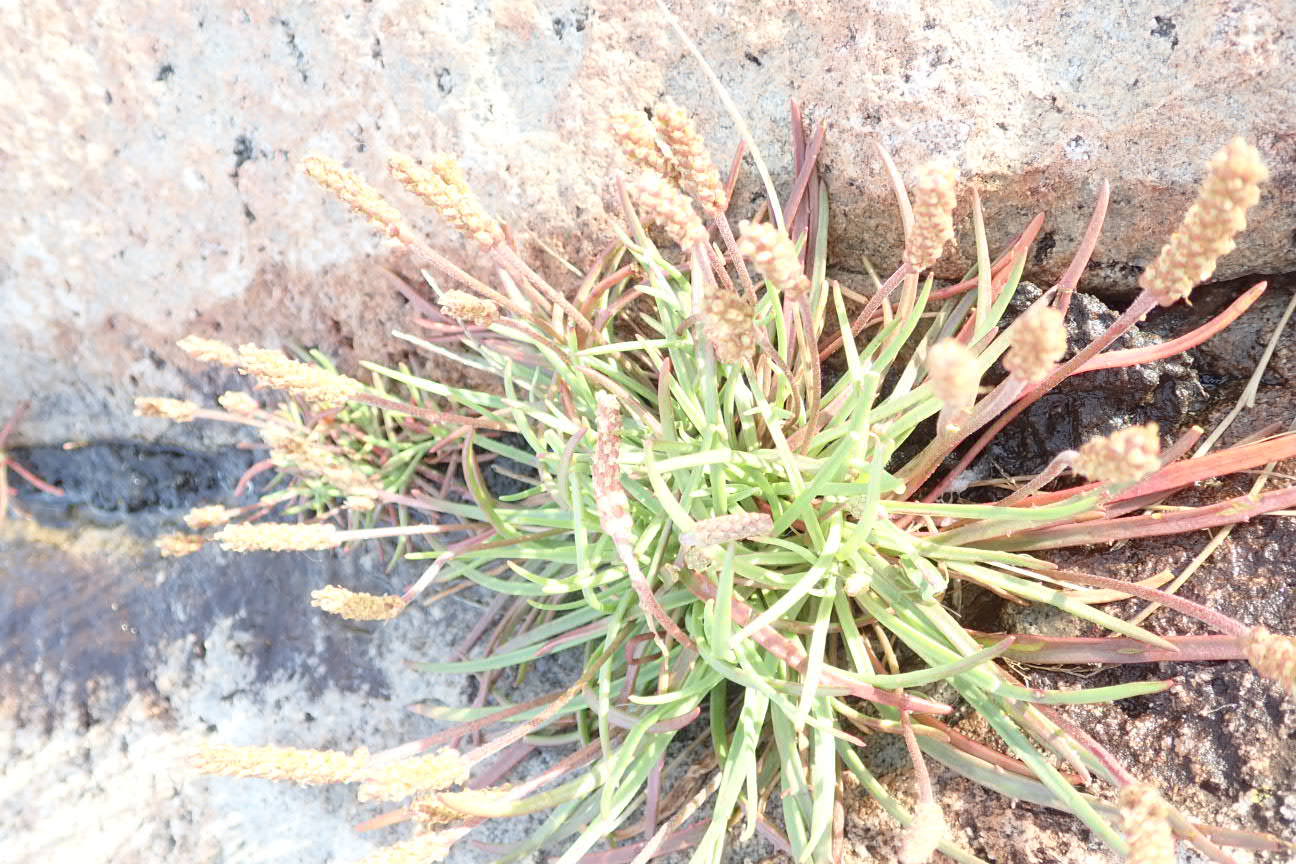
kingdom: Plantae
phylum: Tracheophyta
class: Magnoliopsida
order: Lamiales
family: Plantaginaceae
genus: Plantago
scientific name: Plantago maritima
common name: Sea plantain
